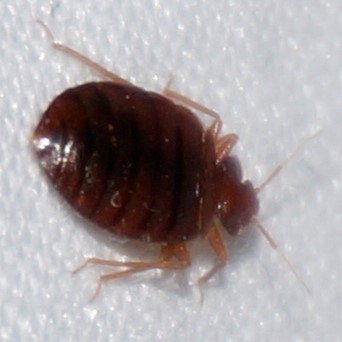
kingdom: Animalia
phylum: Arthropoda
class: Insecta
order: Hemiptera
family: Cimicidae
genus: Cimex
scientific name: Cimex lectularius
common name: Bed bug
